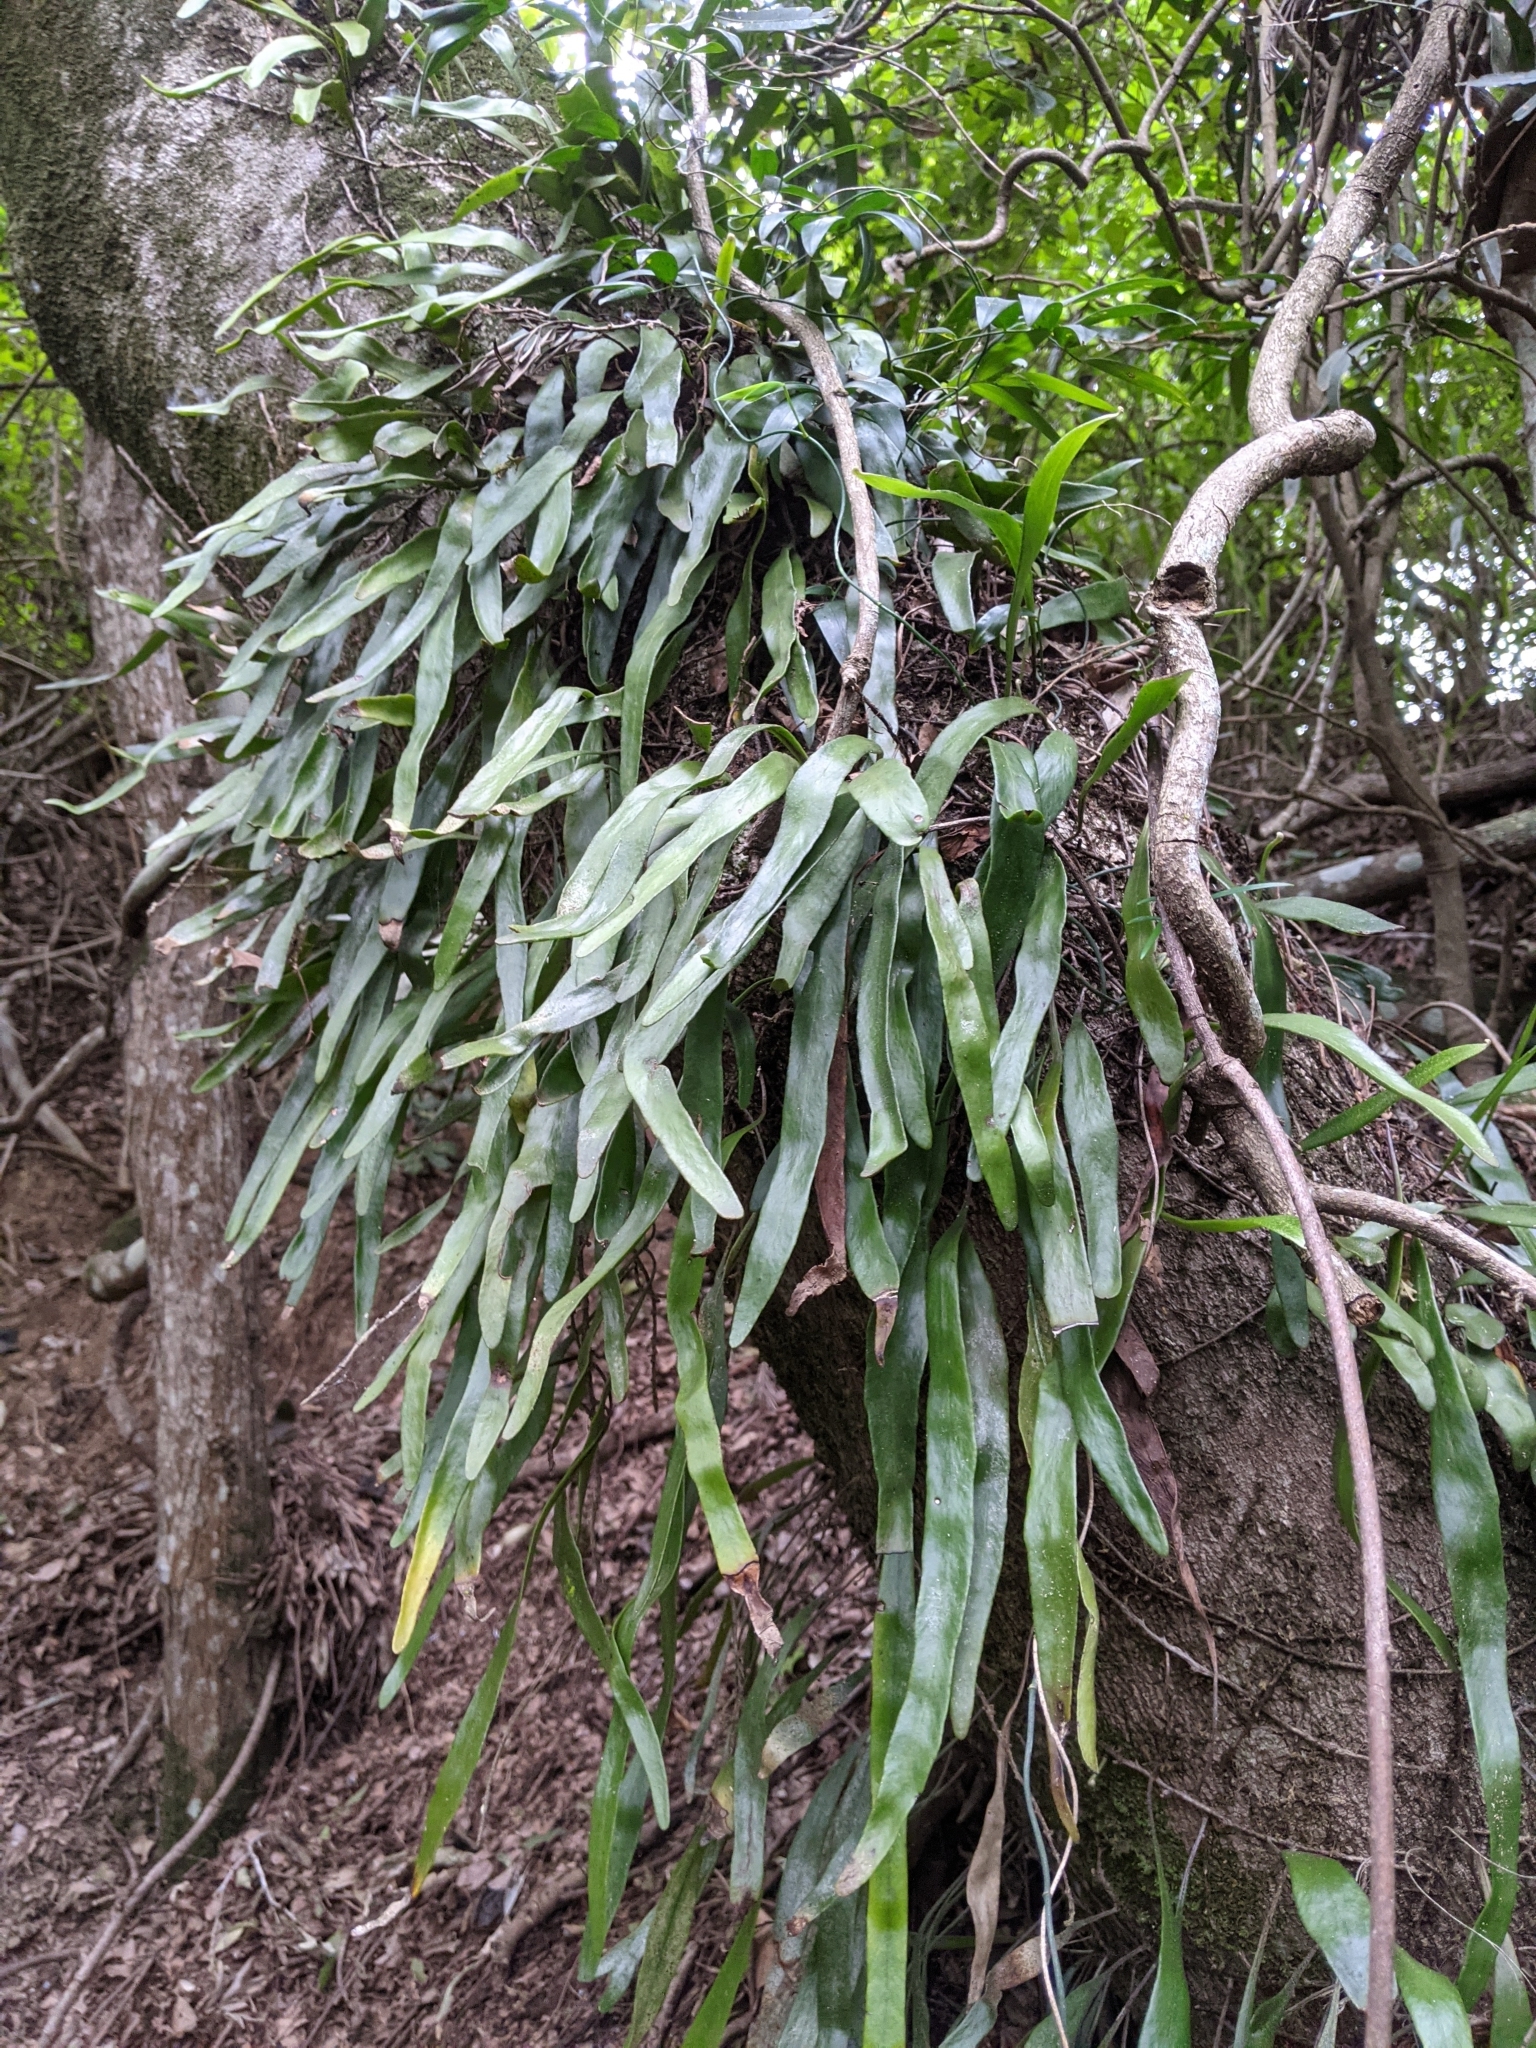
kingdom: Plantae
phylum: Tracheophyta
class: Polypodiopsida
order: Polypodiales
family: Polypodiaceae
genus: Pyrrosia
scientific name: Pyrrosia confluens
